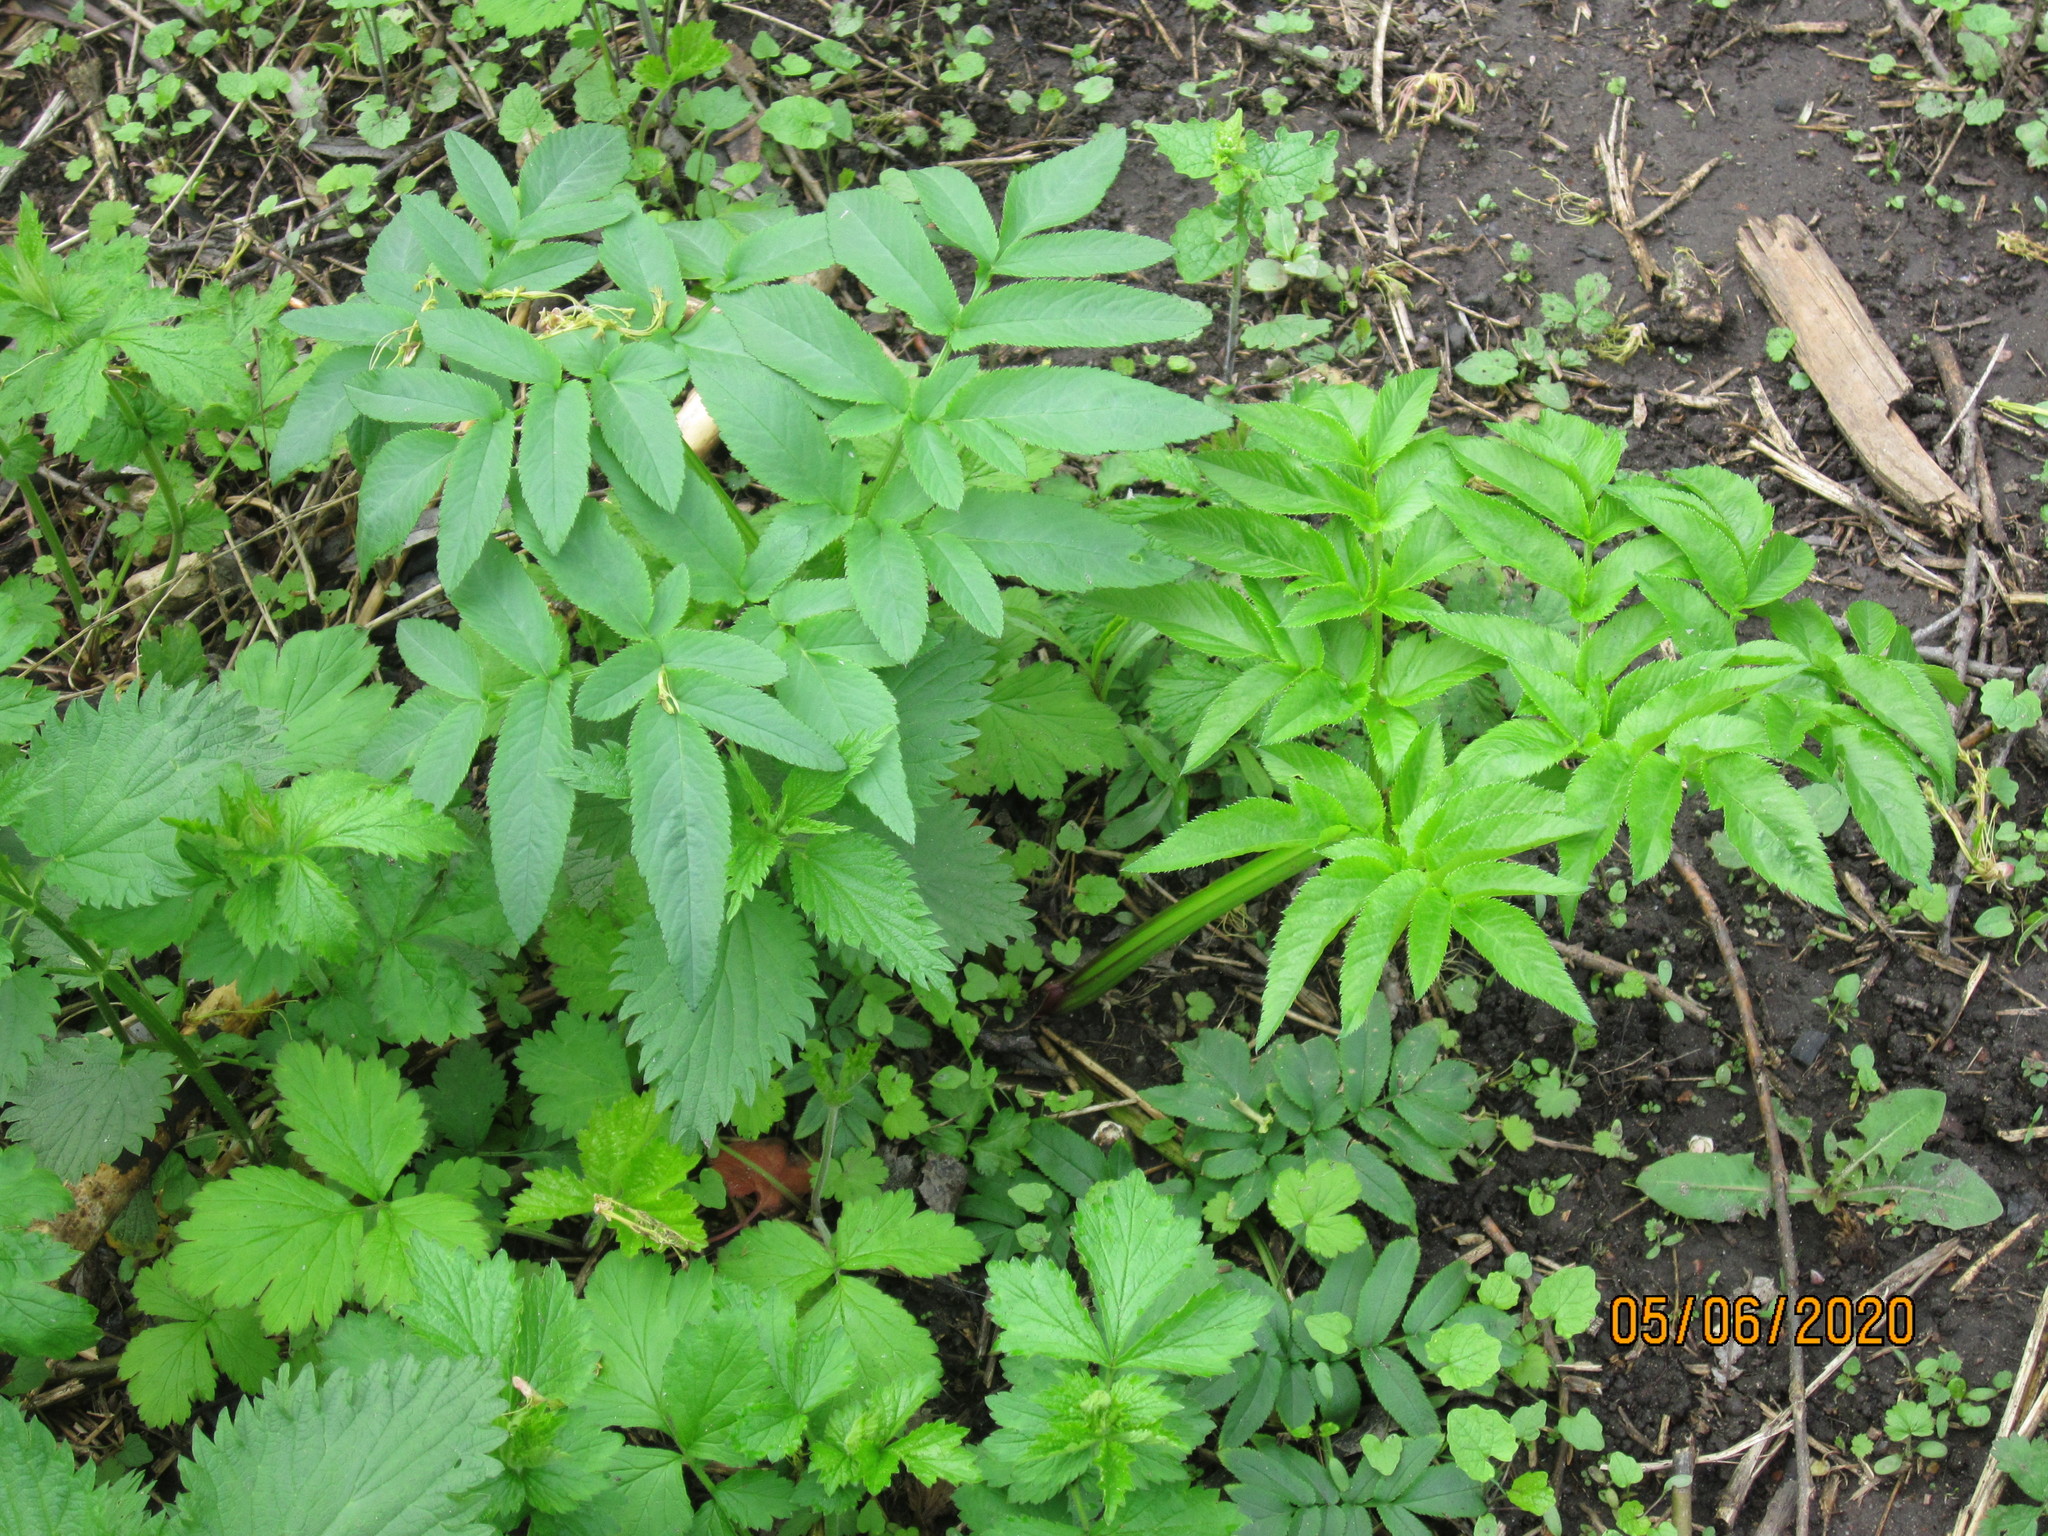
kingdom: Plantae
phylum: Tracheophyta
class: Magnoliopsida
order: Apiales
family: Apiaceae
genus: Angelica
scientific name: Angelica sylvestris
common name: Wild angelica
